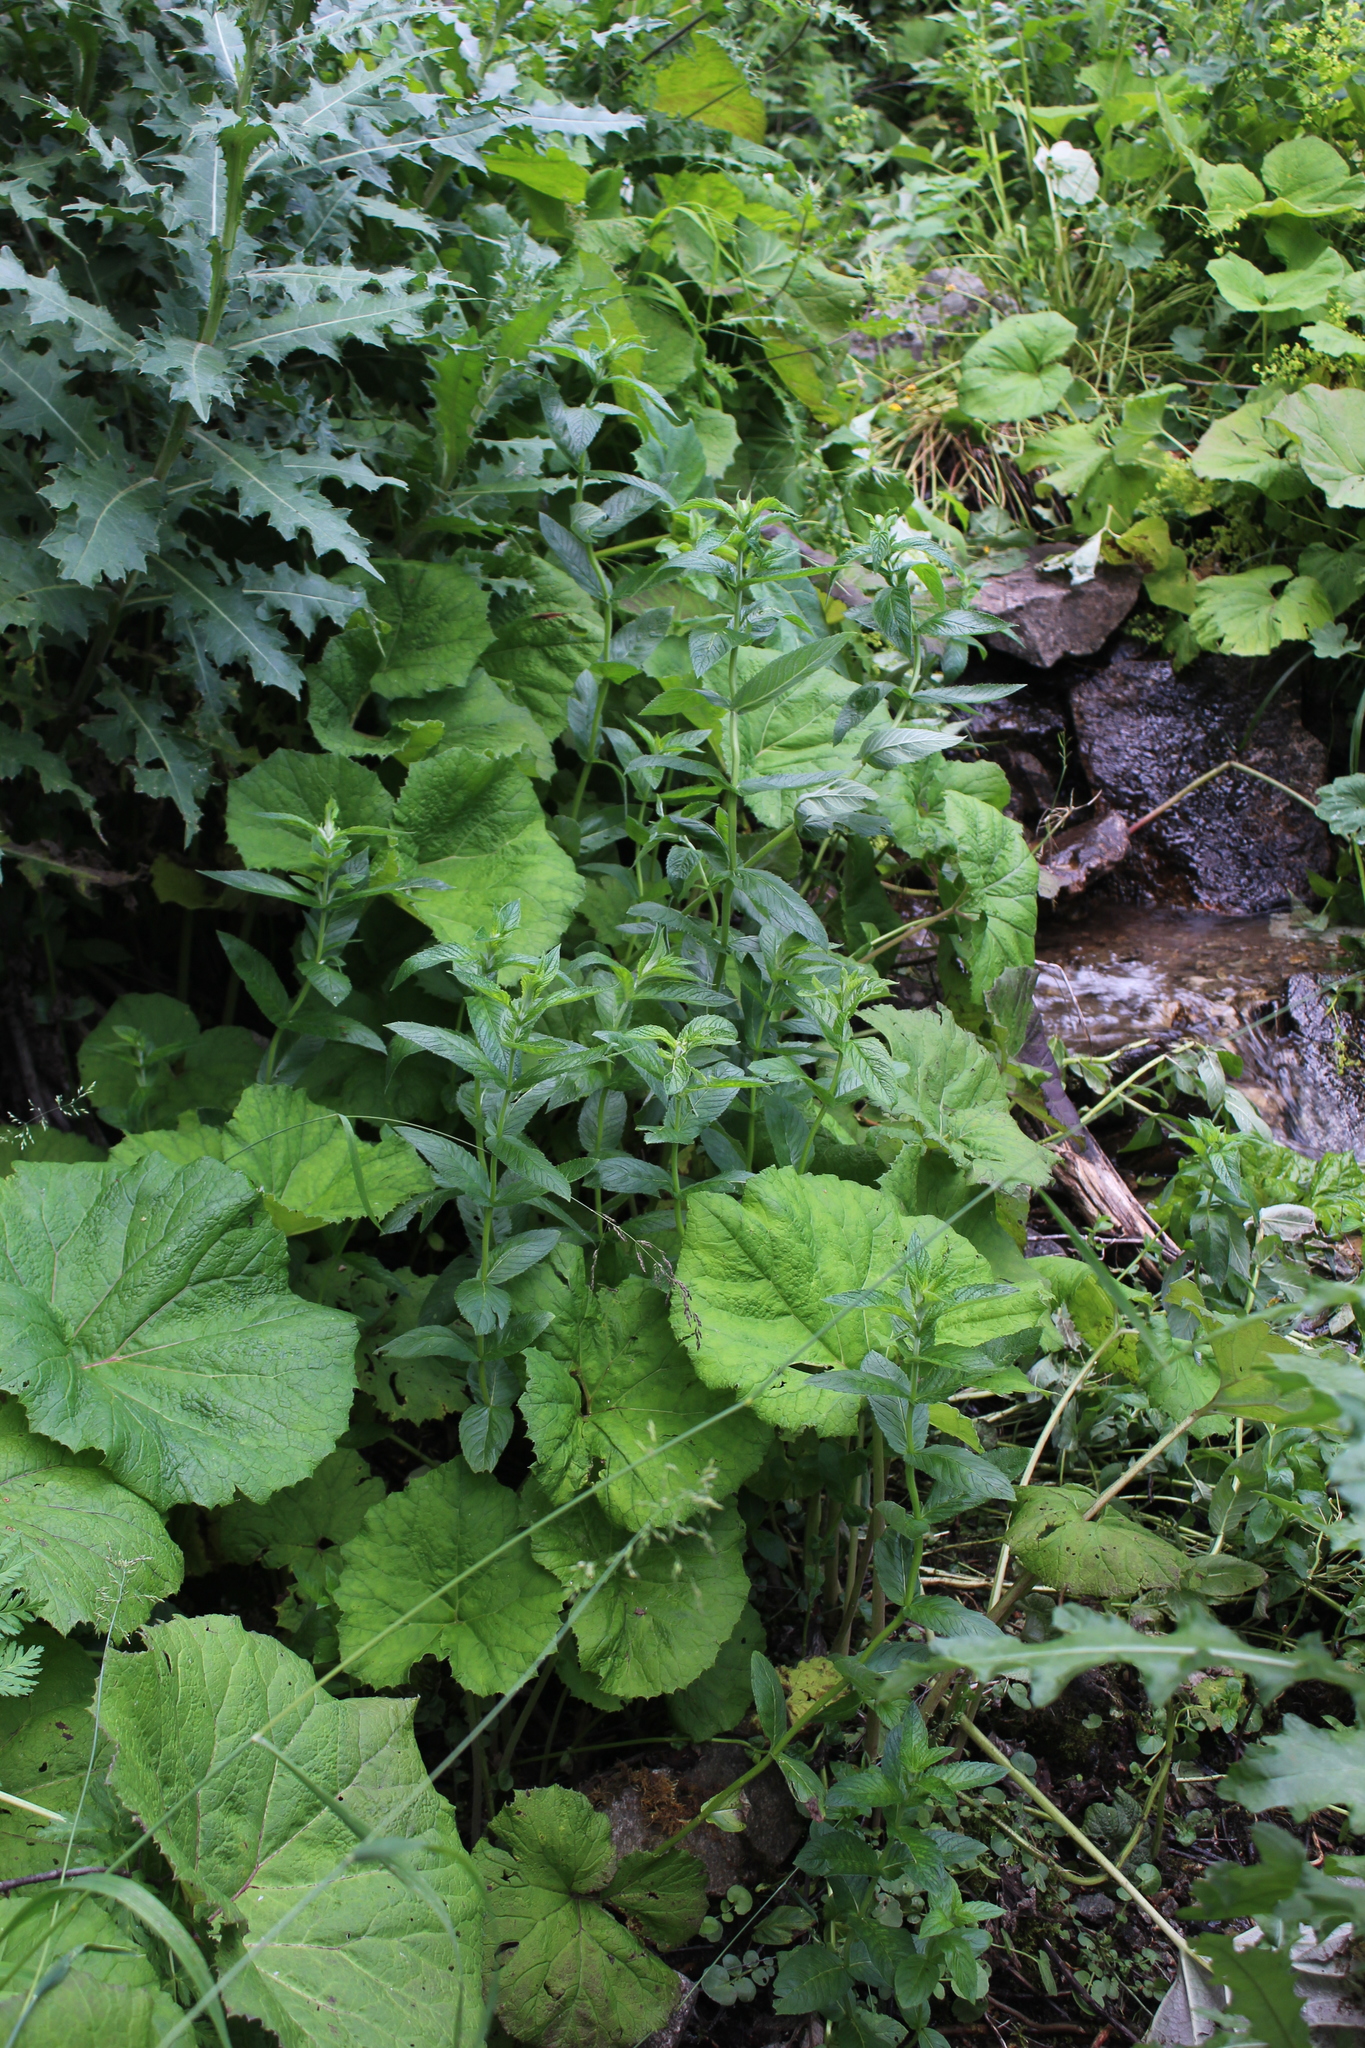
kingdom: Plantae
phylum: Tracheophyta
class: Magnoliopsida
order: Lamiales
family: Lamiaceae
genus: Mentha
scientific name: Mentha longifolia
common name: Horse mint
